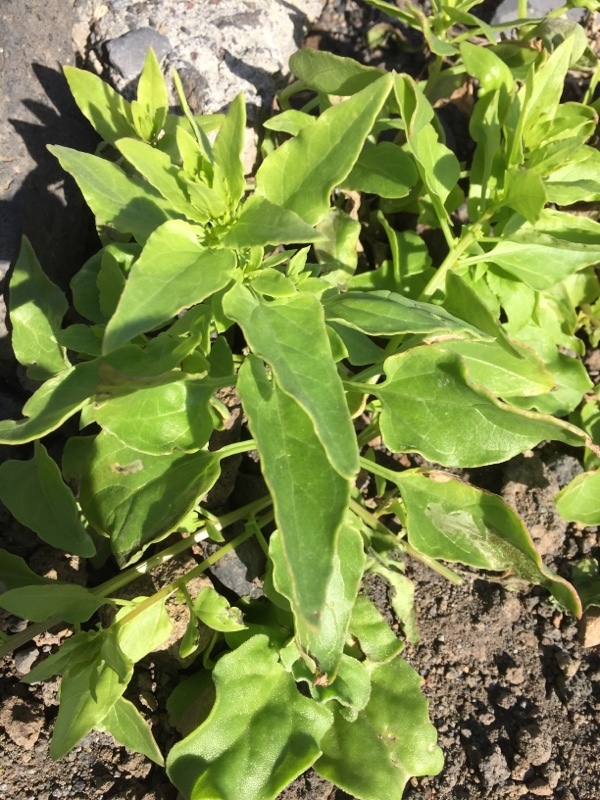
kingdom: Plantae
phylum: Tracheophyta
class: Magnoliopsida
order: Caryophyllales
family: Amaranthaceae
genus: Patellifolia
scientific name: Patellifolia procumbens
